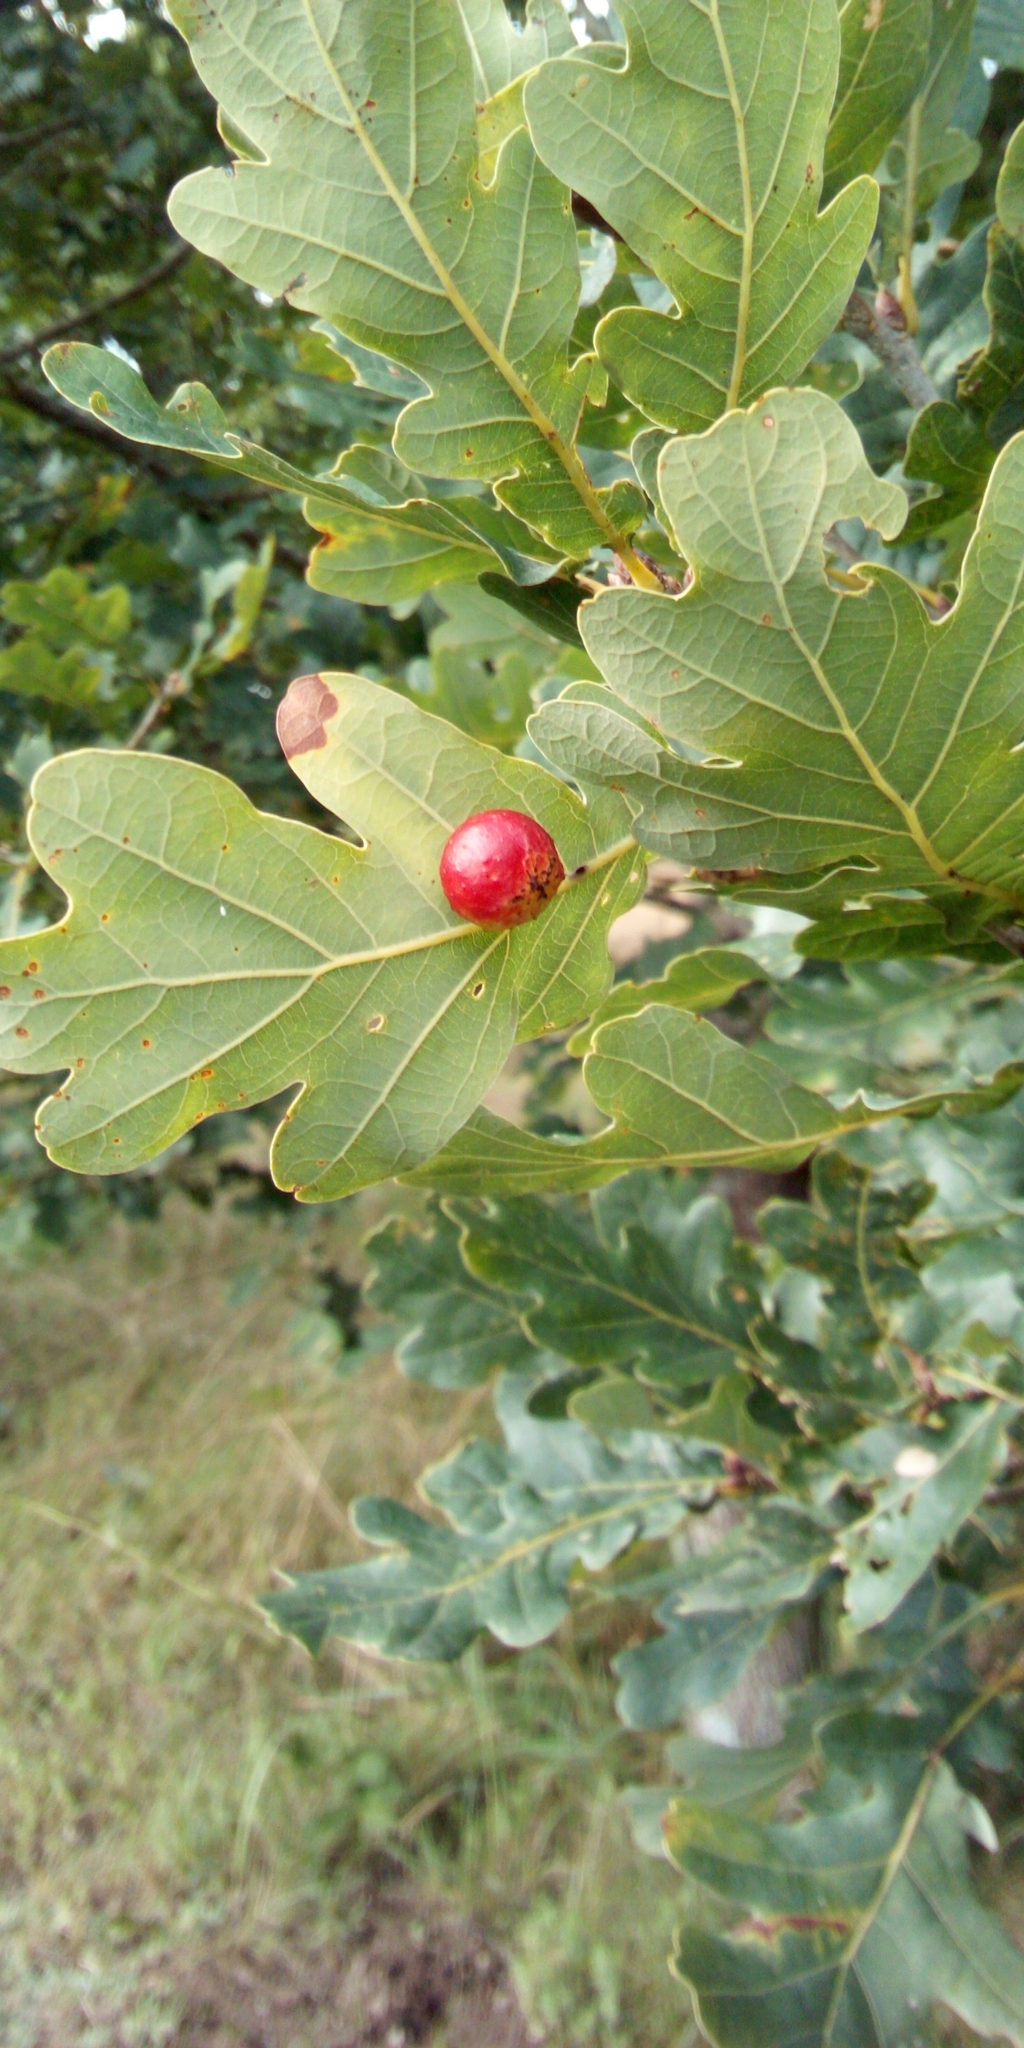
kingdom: Animalia
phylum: Arthropoda
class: Insecta
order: Hymenoptera
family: Cynipidae
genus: Cynips
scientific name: Cynips quercusfolii
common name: Cherry gall
